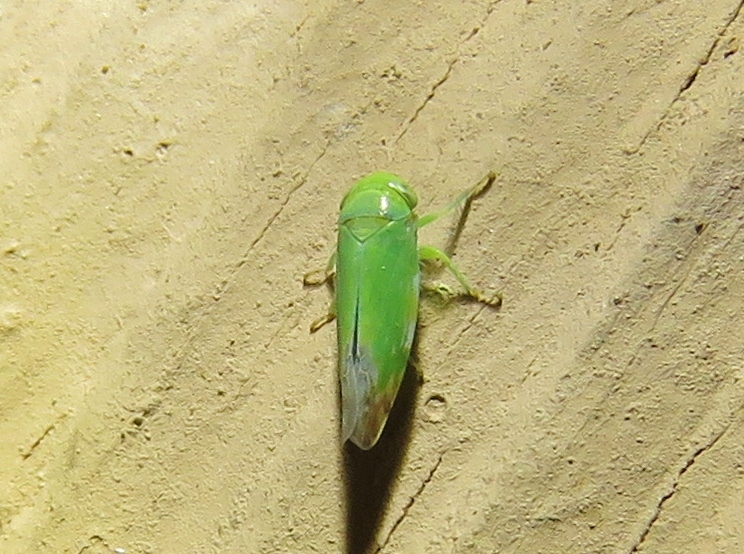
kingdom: Animalia
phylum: Arthropoda
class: Insecta
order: Hemiptera
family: Cicadellidae
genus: Opsius
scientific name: Opsius stactogalus
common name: Leafhopper
